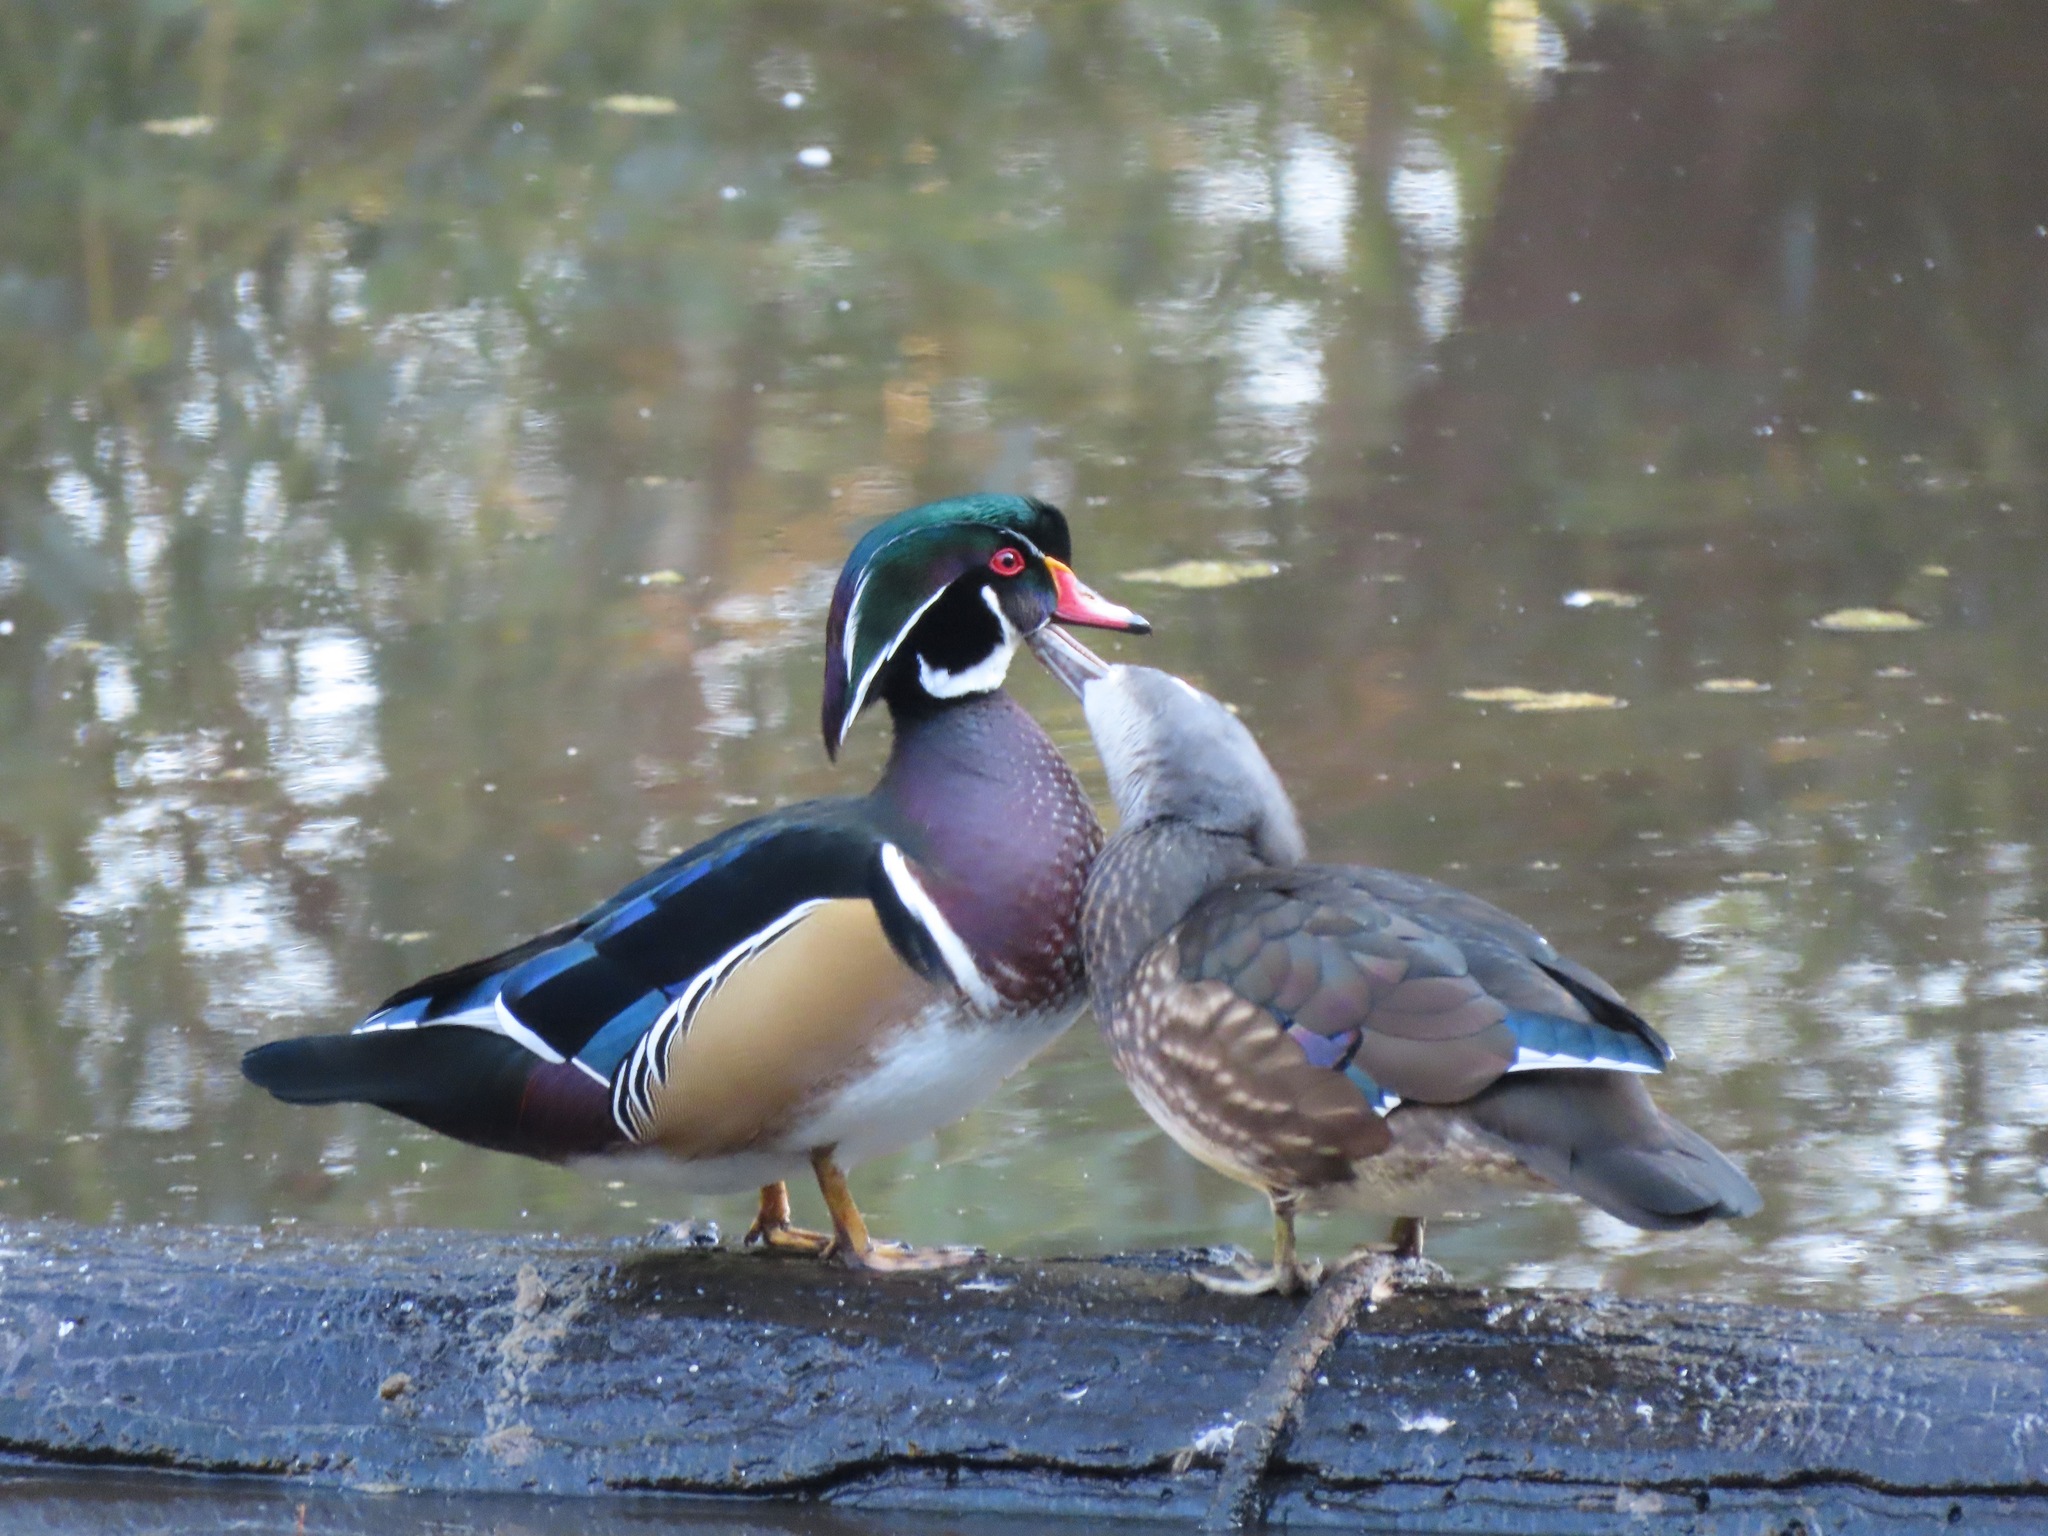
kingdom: Animalia
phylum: Chordata
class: Aves
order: Anseriformes
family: Anatidae
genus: Aix
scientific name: Aix sponsa
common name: Wood duck
